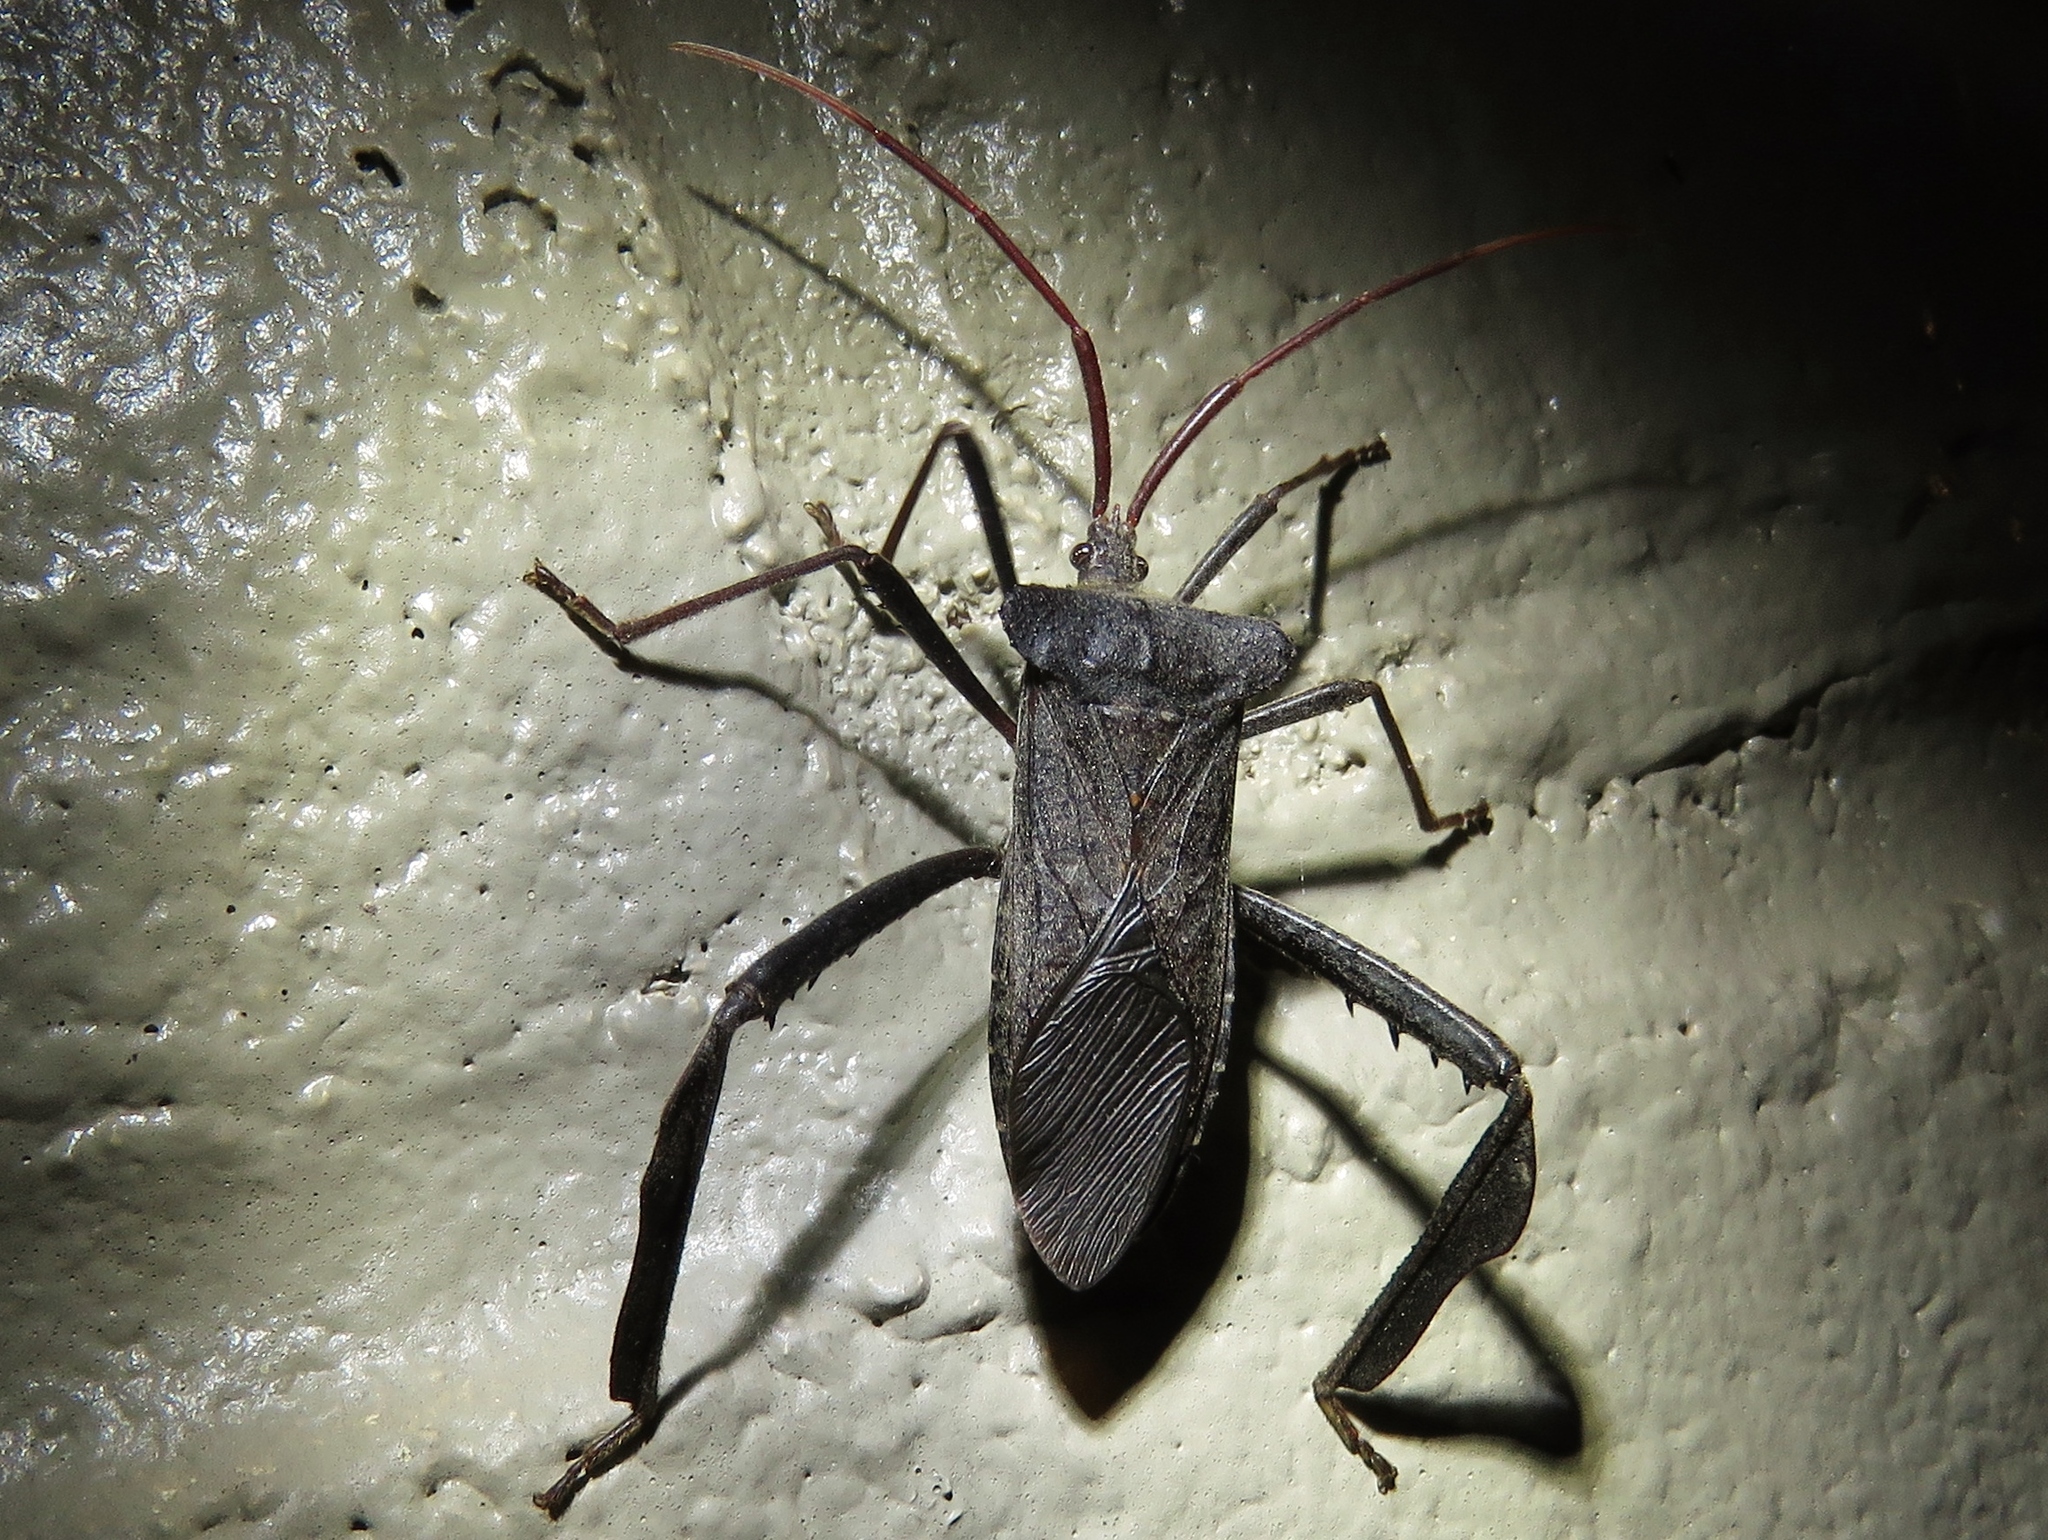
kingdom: Animalia
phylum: Arthropoda
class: Insecta
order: Hemiptera
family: Coreidae
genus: Acanthocephala
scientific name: Acanthocephala declivis
